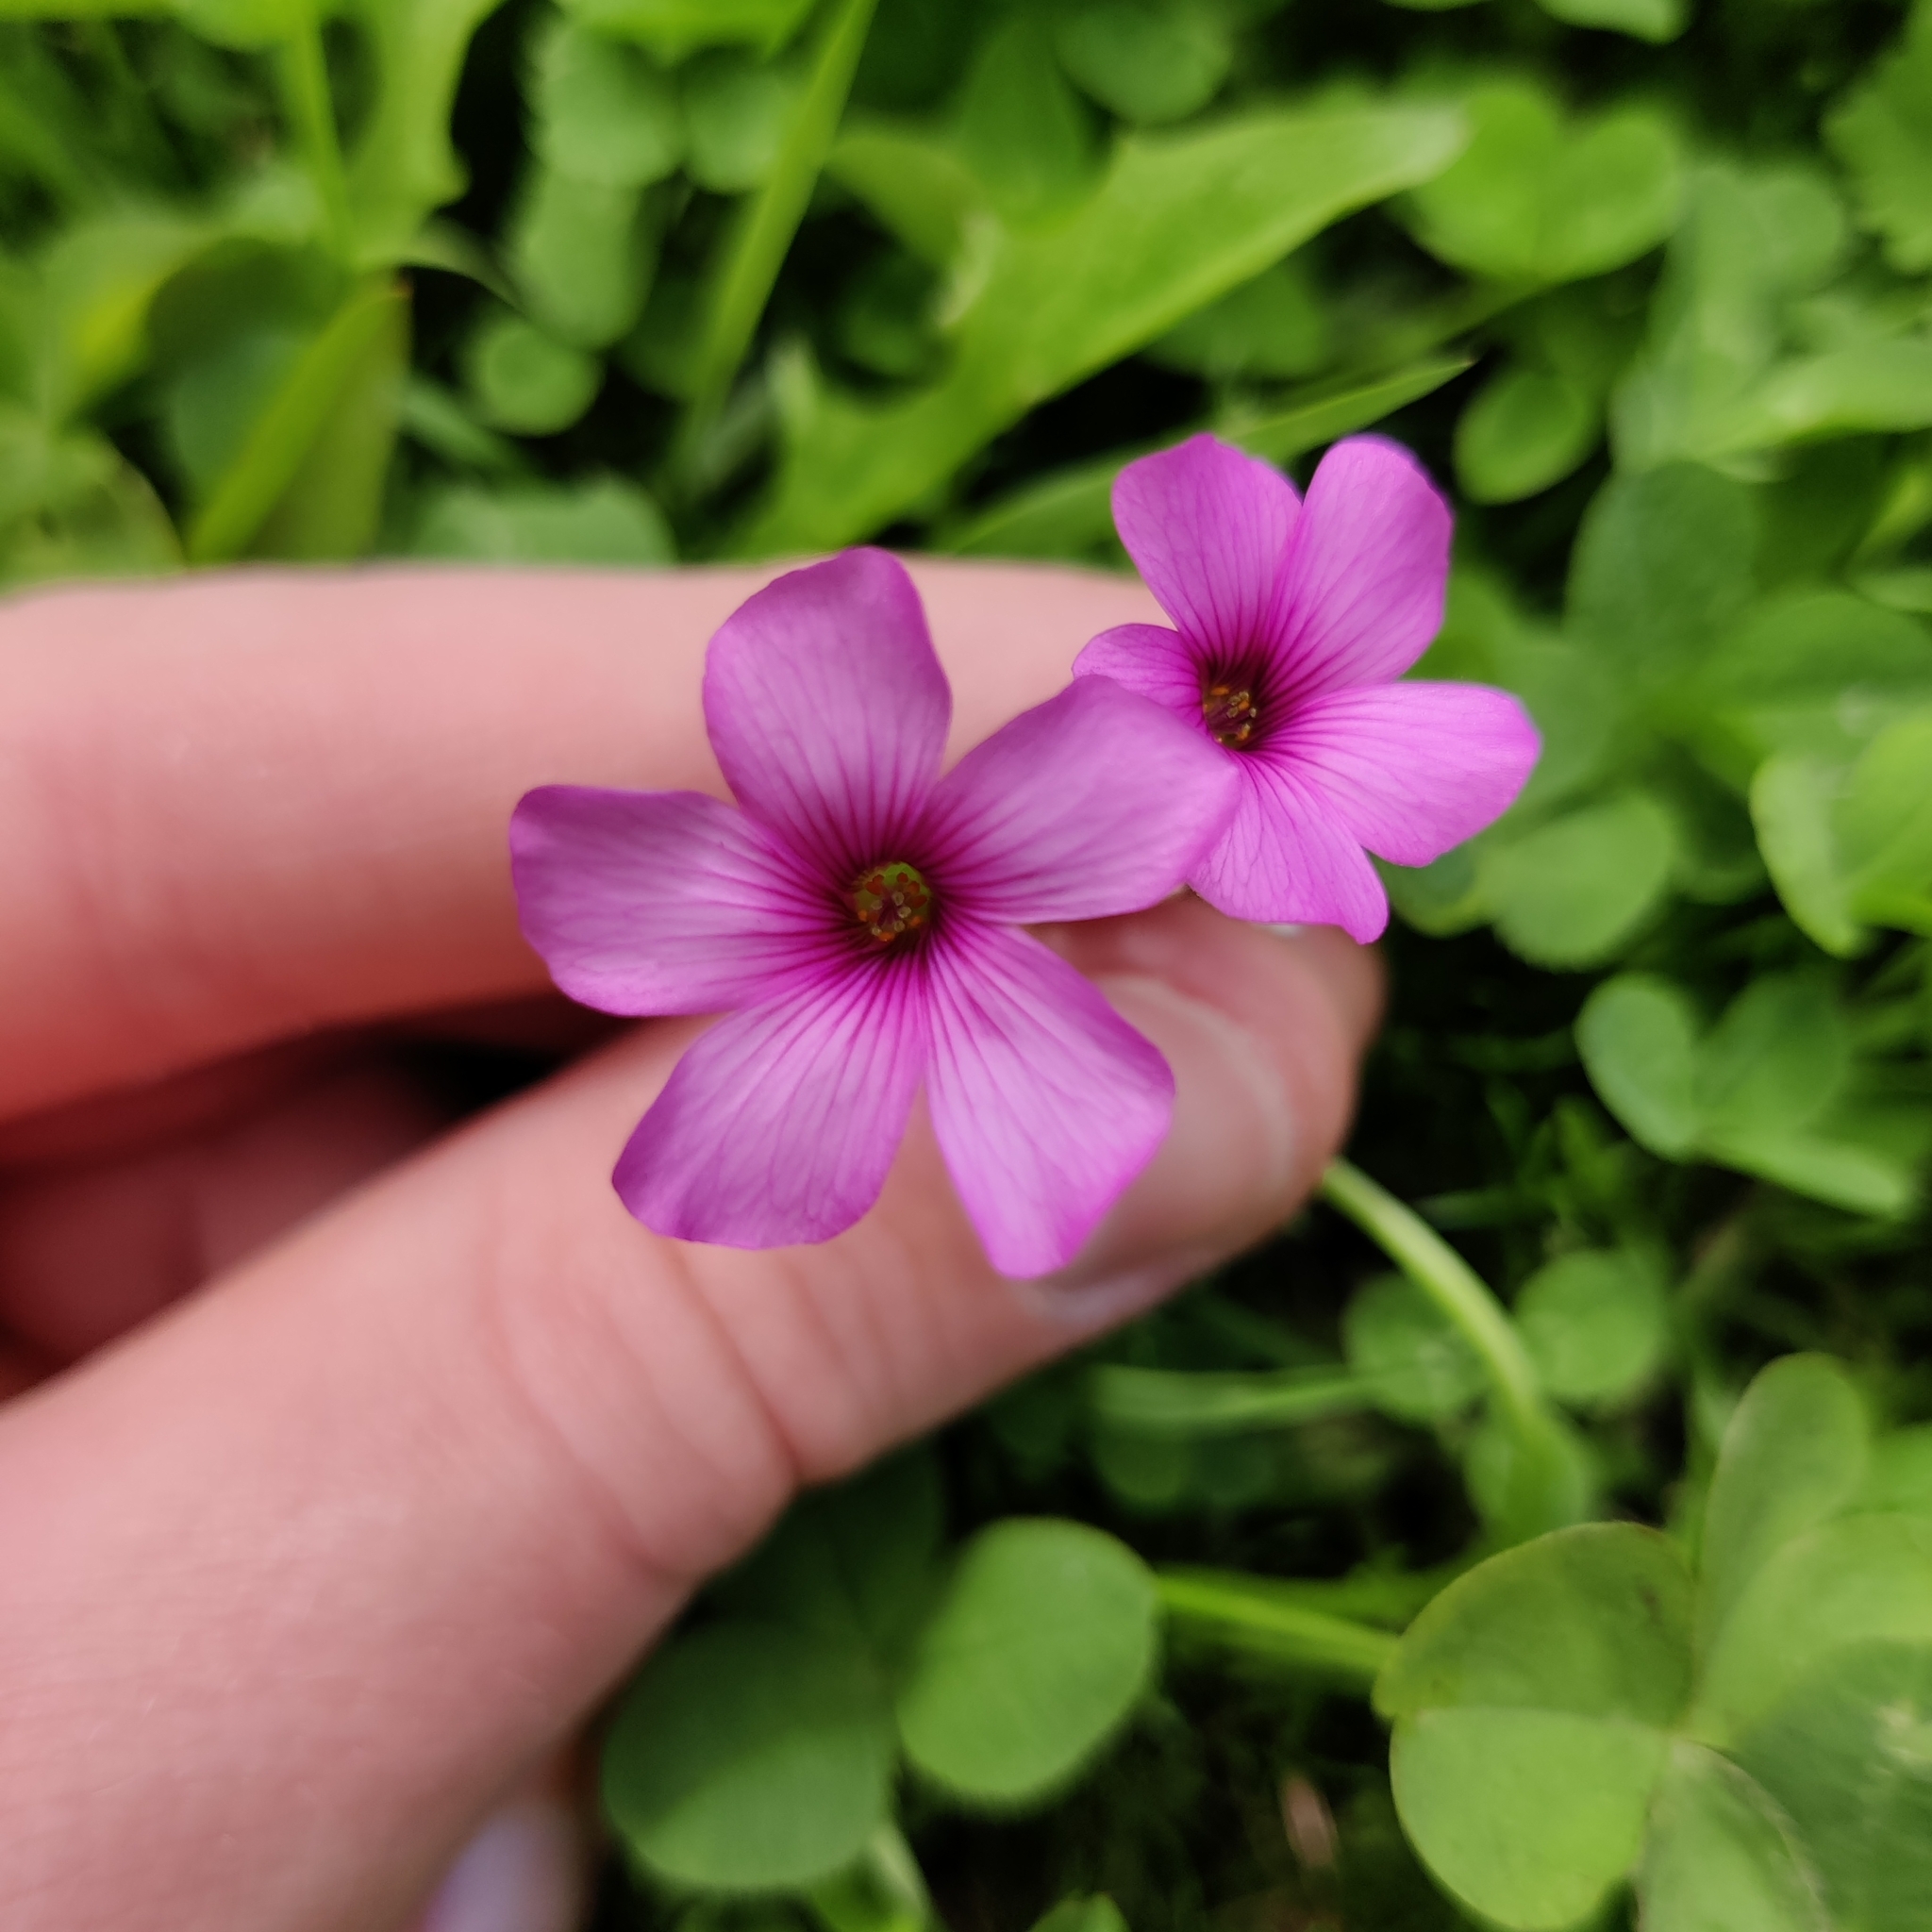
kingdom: Plantae
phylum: Tracheophyta
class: Magnoliopsida
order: Oxalidales
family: Oxalidaceae
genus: Oxalis
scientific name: Oxalis articulata
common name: Pink-sorrel
